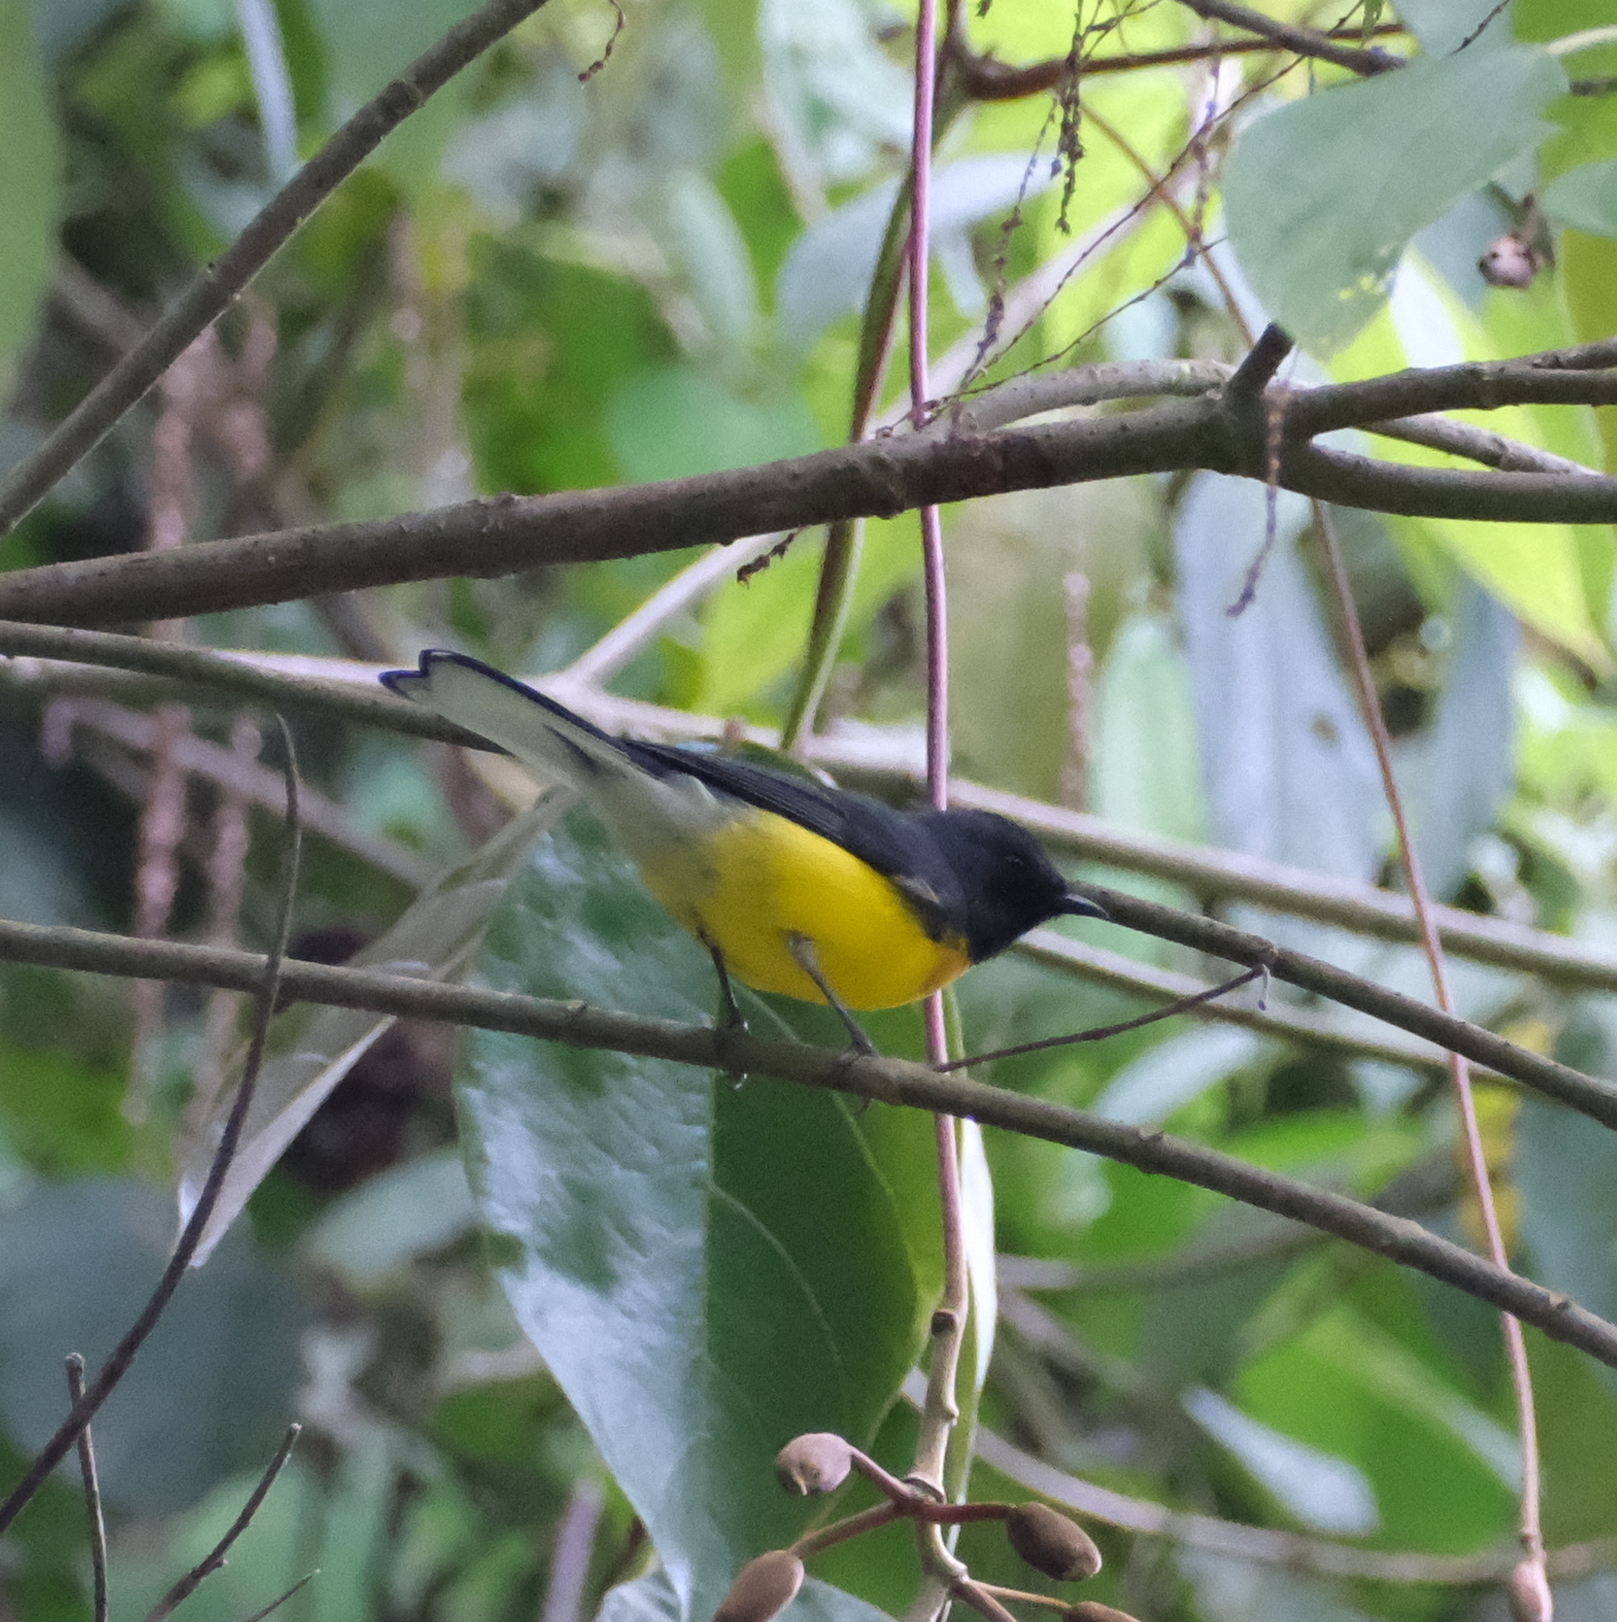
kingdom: Animalia
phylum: Chordata
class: Aves
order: Passeriformes
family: Parulidae
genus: Myioborus
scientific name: Myioborus miniatus
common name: Slate-throated redstart
